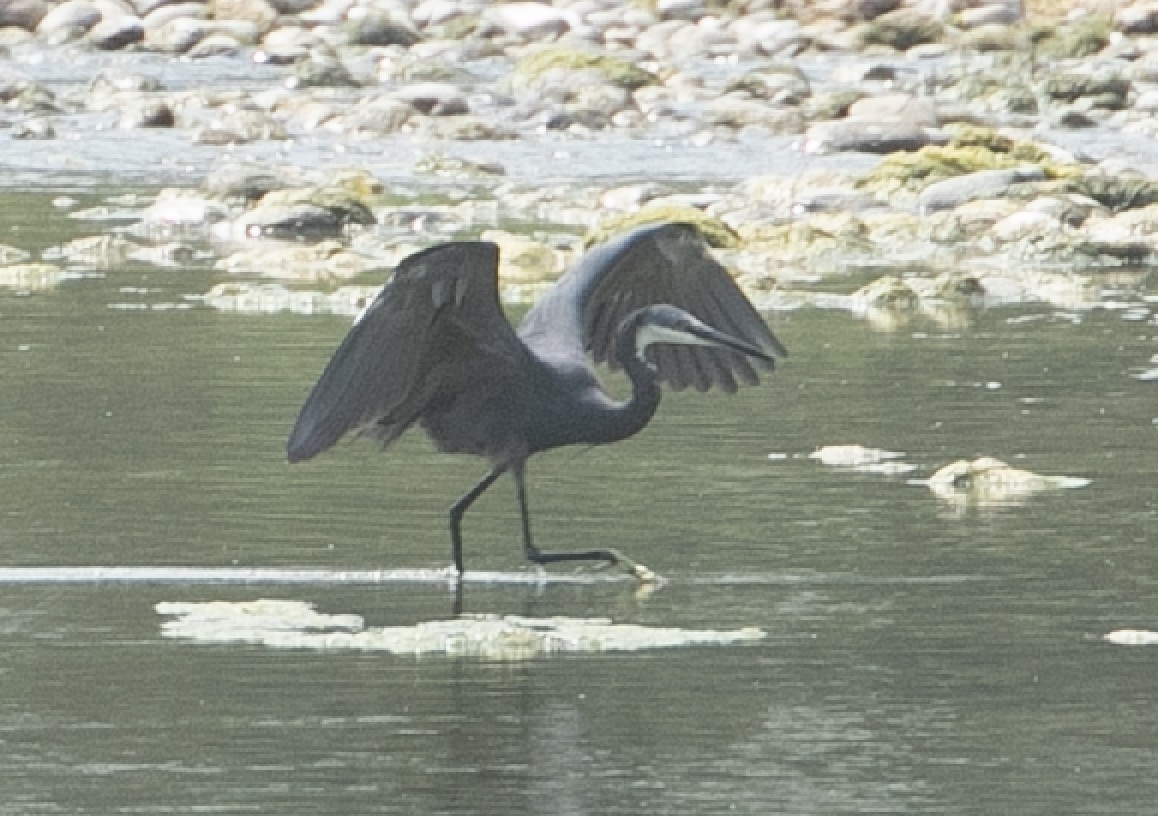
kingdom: Animalia
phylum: Chordata
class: Aves
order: Pelecaniformes
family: Ardeidae
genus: Egretta
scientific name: Egretta gularis
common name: Western reef-heron
